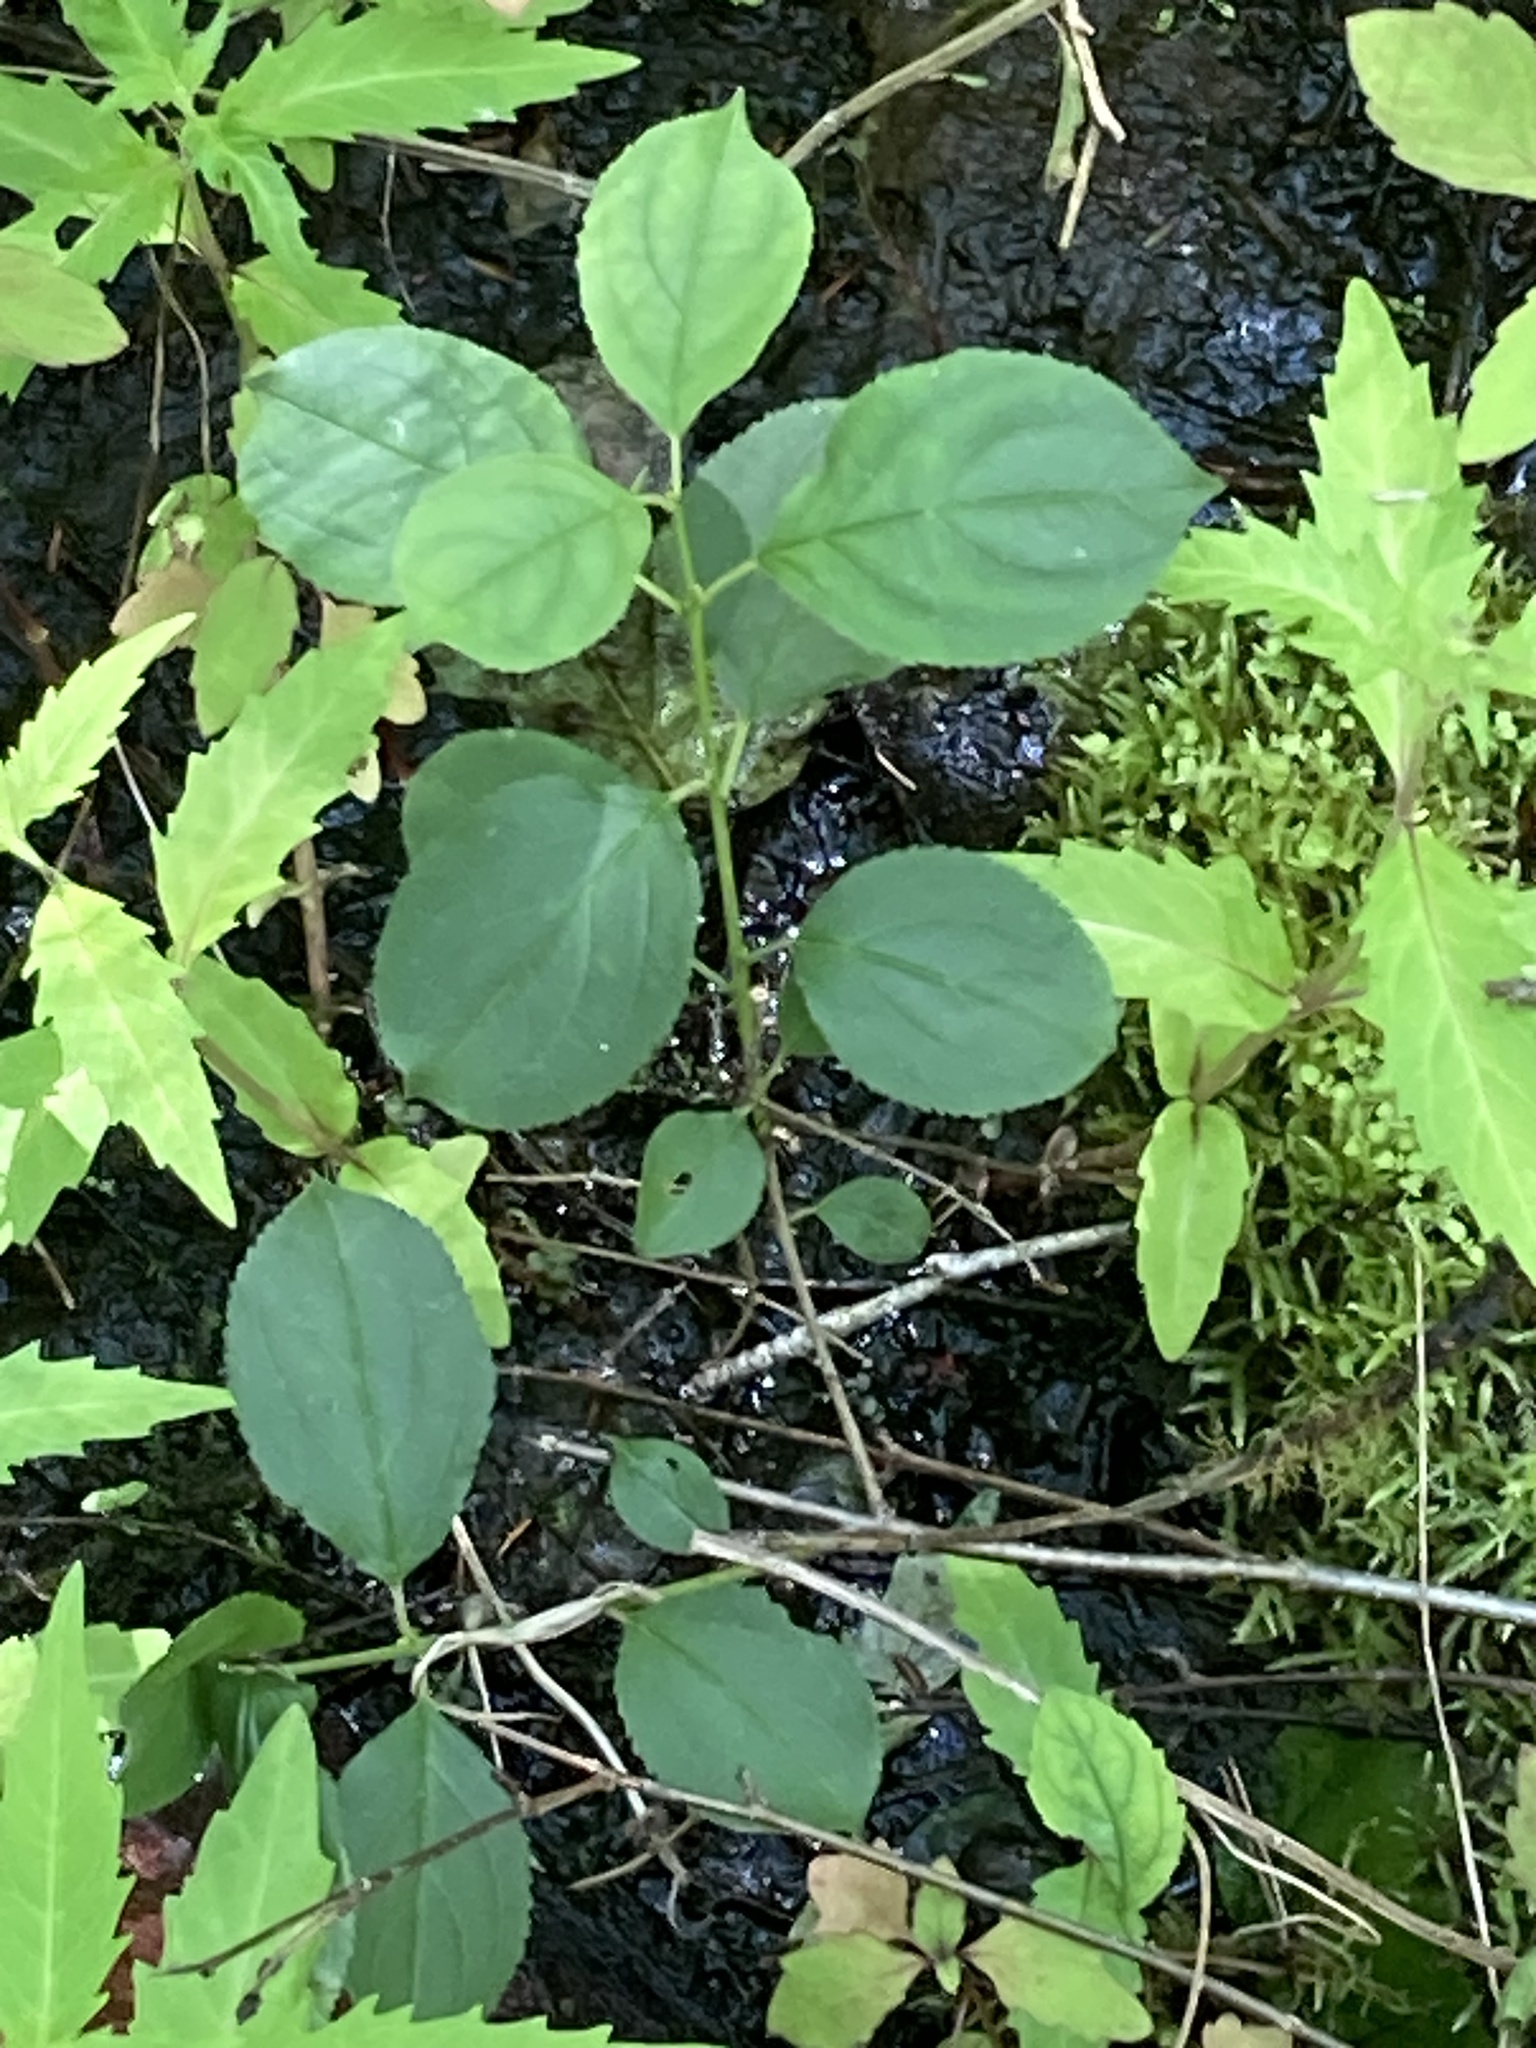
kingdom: Plantae
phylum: Tracheophyta
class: Magnoliopsida
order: Rosales
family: Rhamnaceae
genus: Rhamnus
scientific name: Rhamnus cathartica
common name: Common buckthorn
